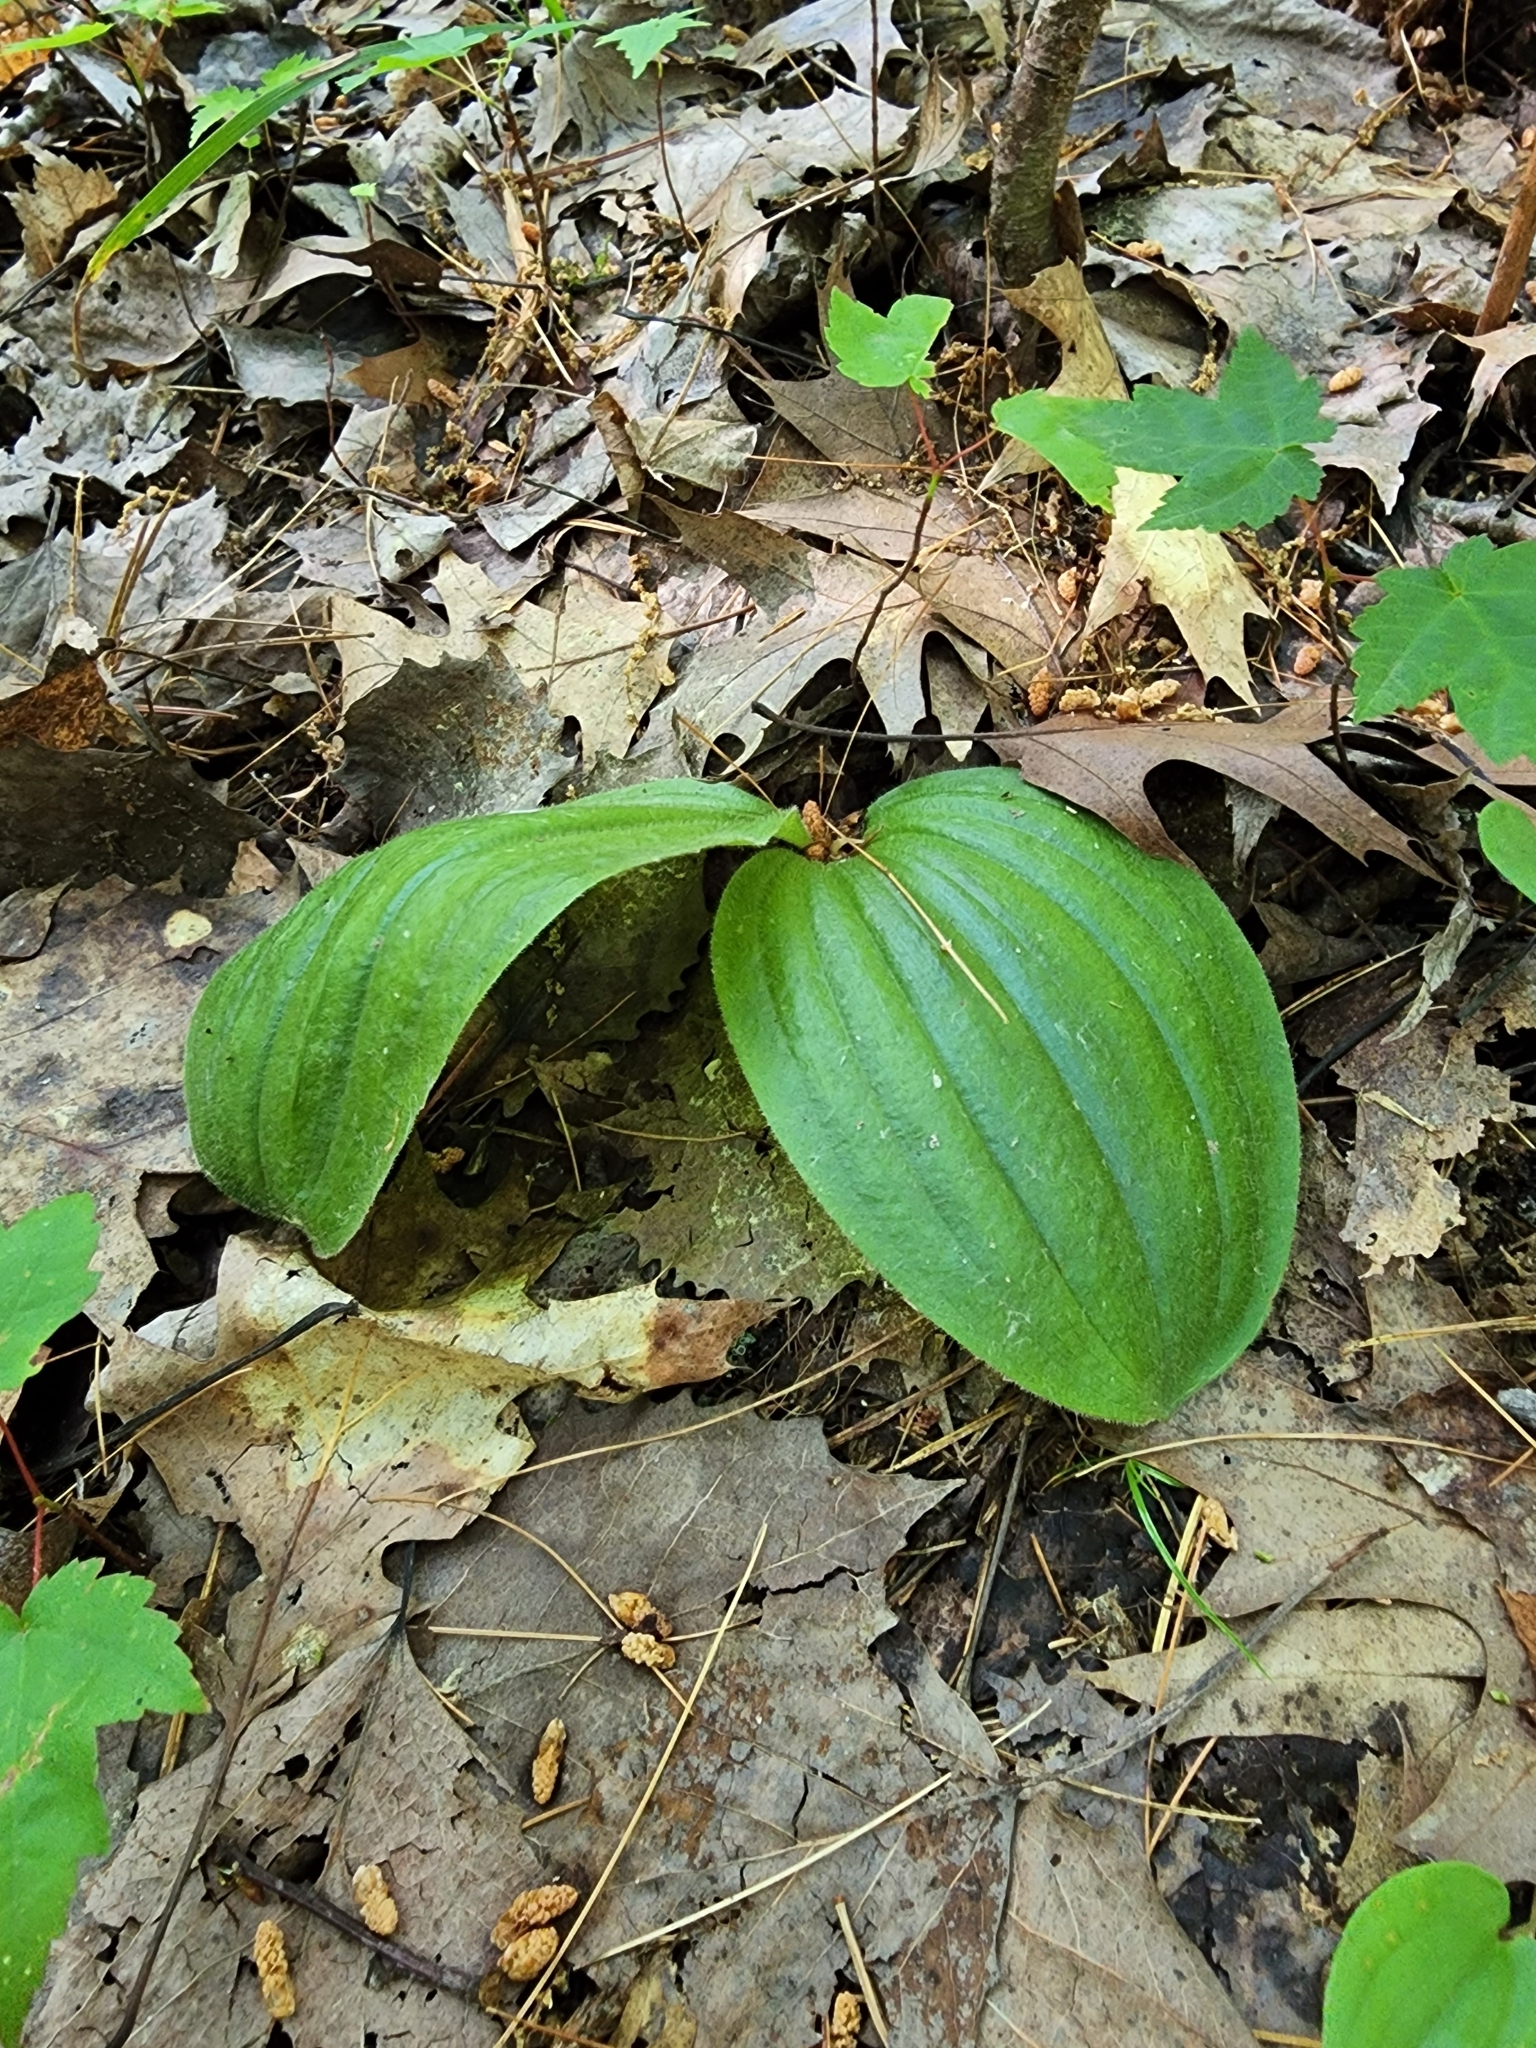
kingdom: Plantae
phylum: Tracheophyta
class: Liliopsida
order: Asparagales
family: Orchidaceae
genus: Cypripedium
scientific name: Cypripedium acaule
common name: Pink lady's-slipper
